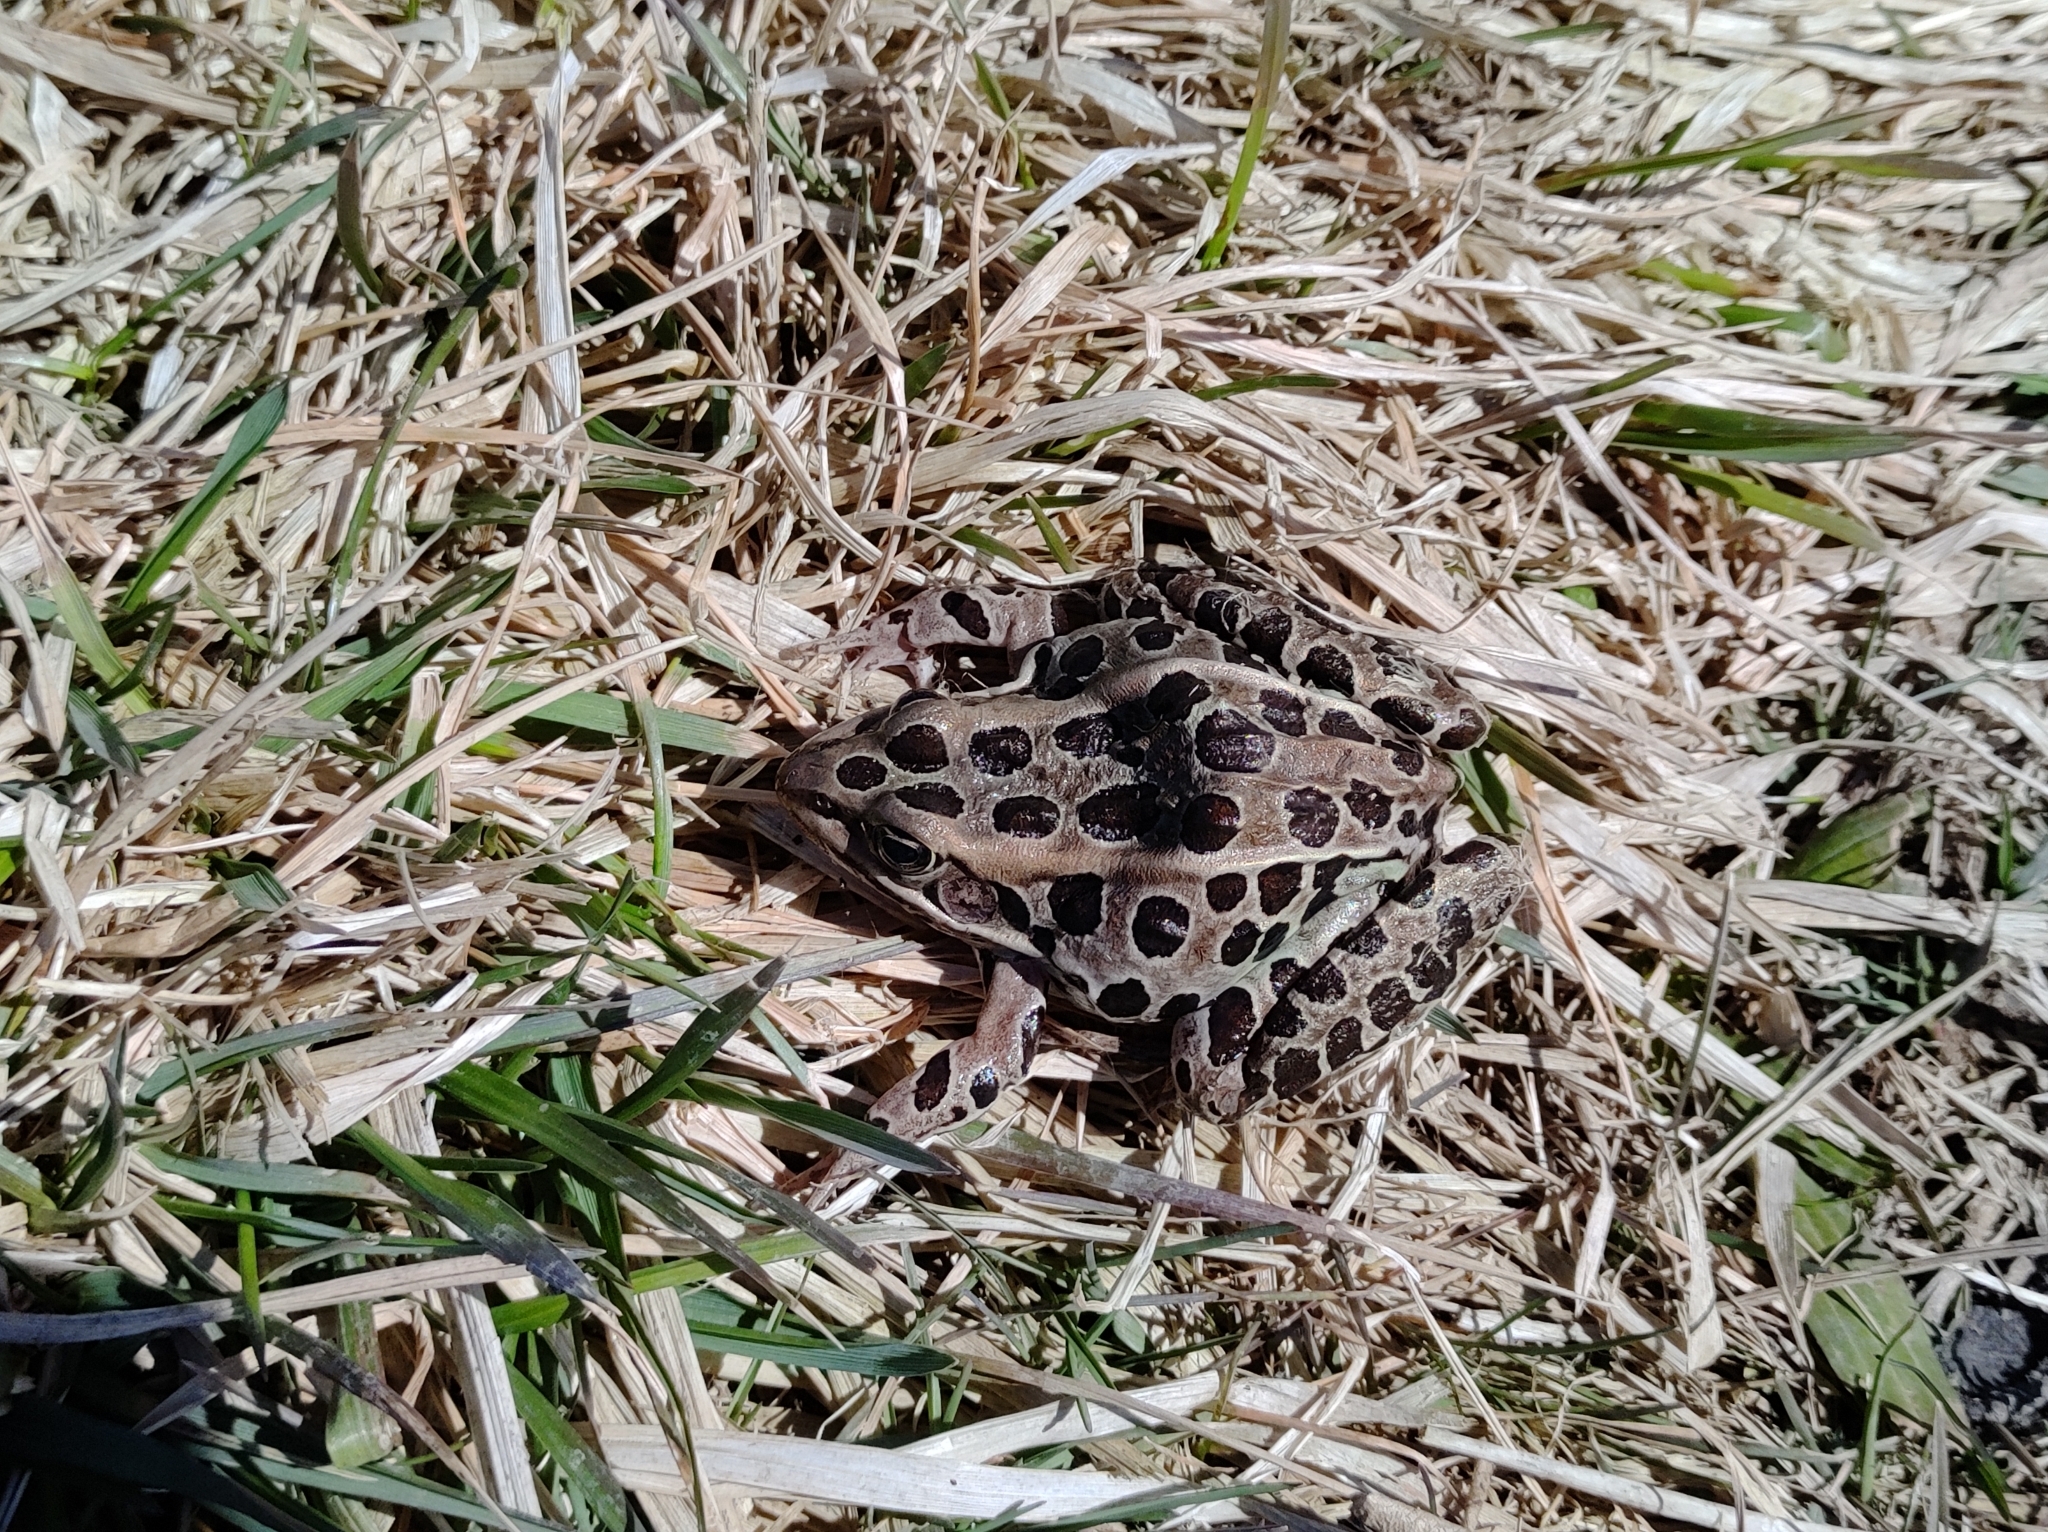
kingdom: Animalia
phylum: Chordata
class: Amphibia
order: Anura
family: Ranidae
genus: Lithobates
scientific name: Lithobates pipiens
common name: Northern leopard frog
